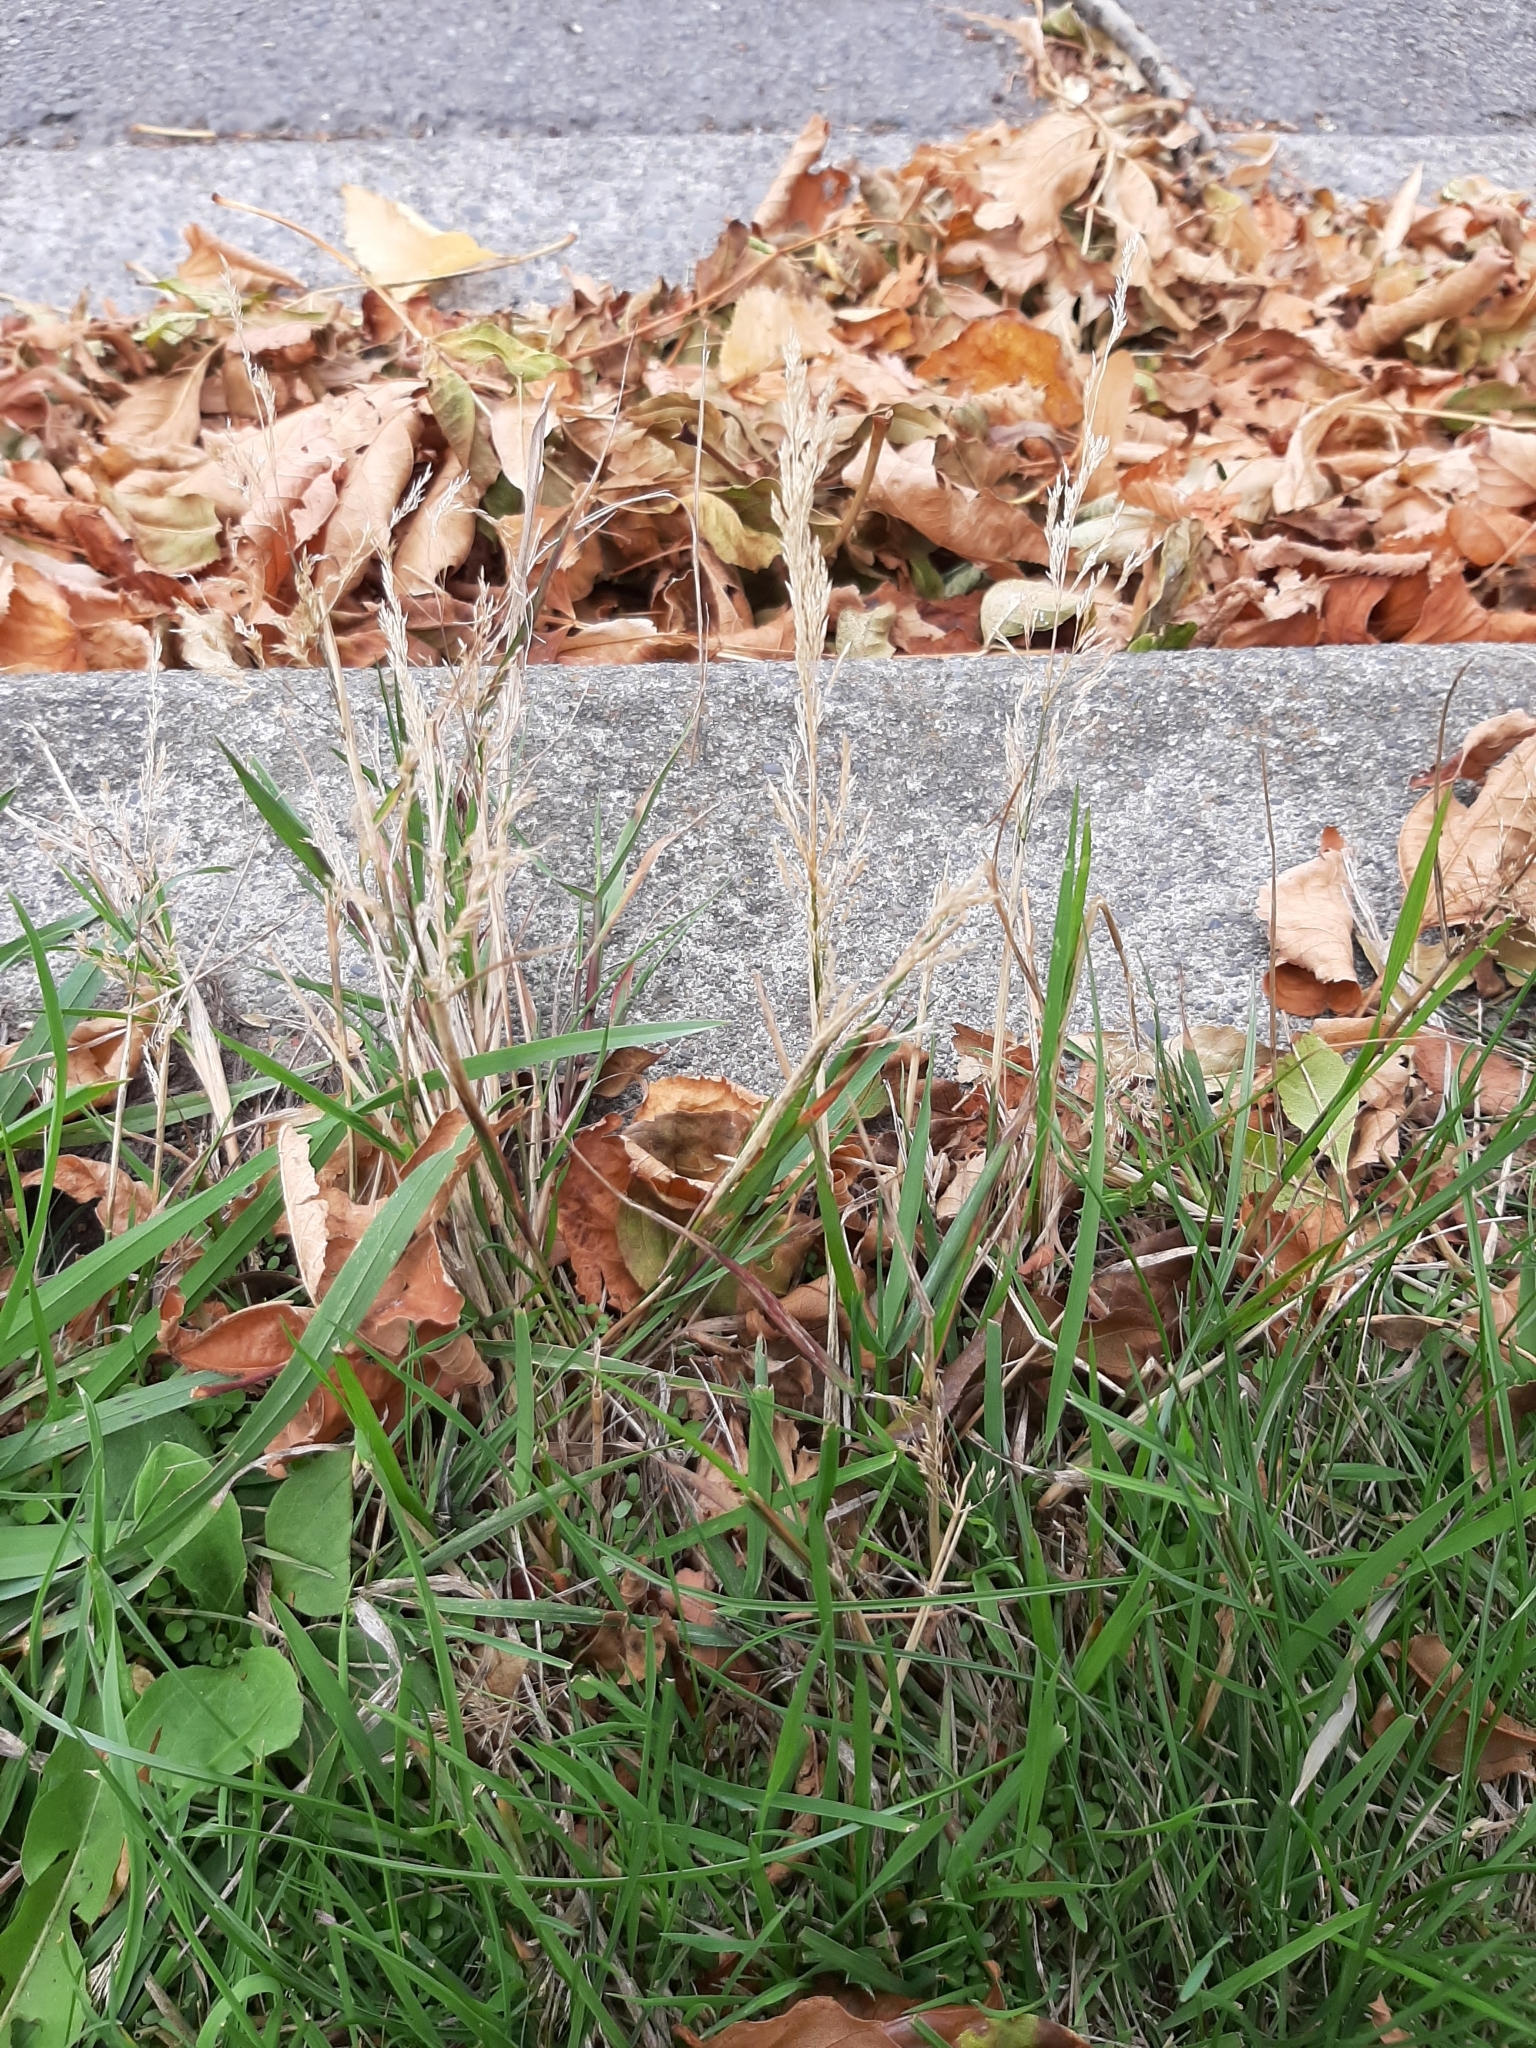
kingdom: Plantae
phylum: Tracheophyta
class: Liliopsida
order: Poales
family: Poaceae
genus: Agrostis
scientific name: Agrostis capillaris
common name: Colonial bentgrass
